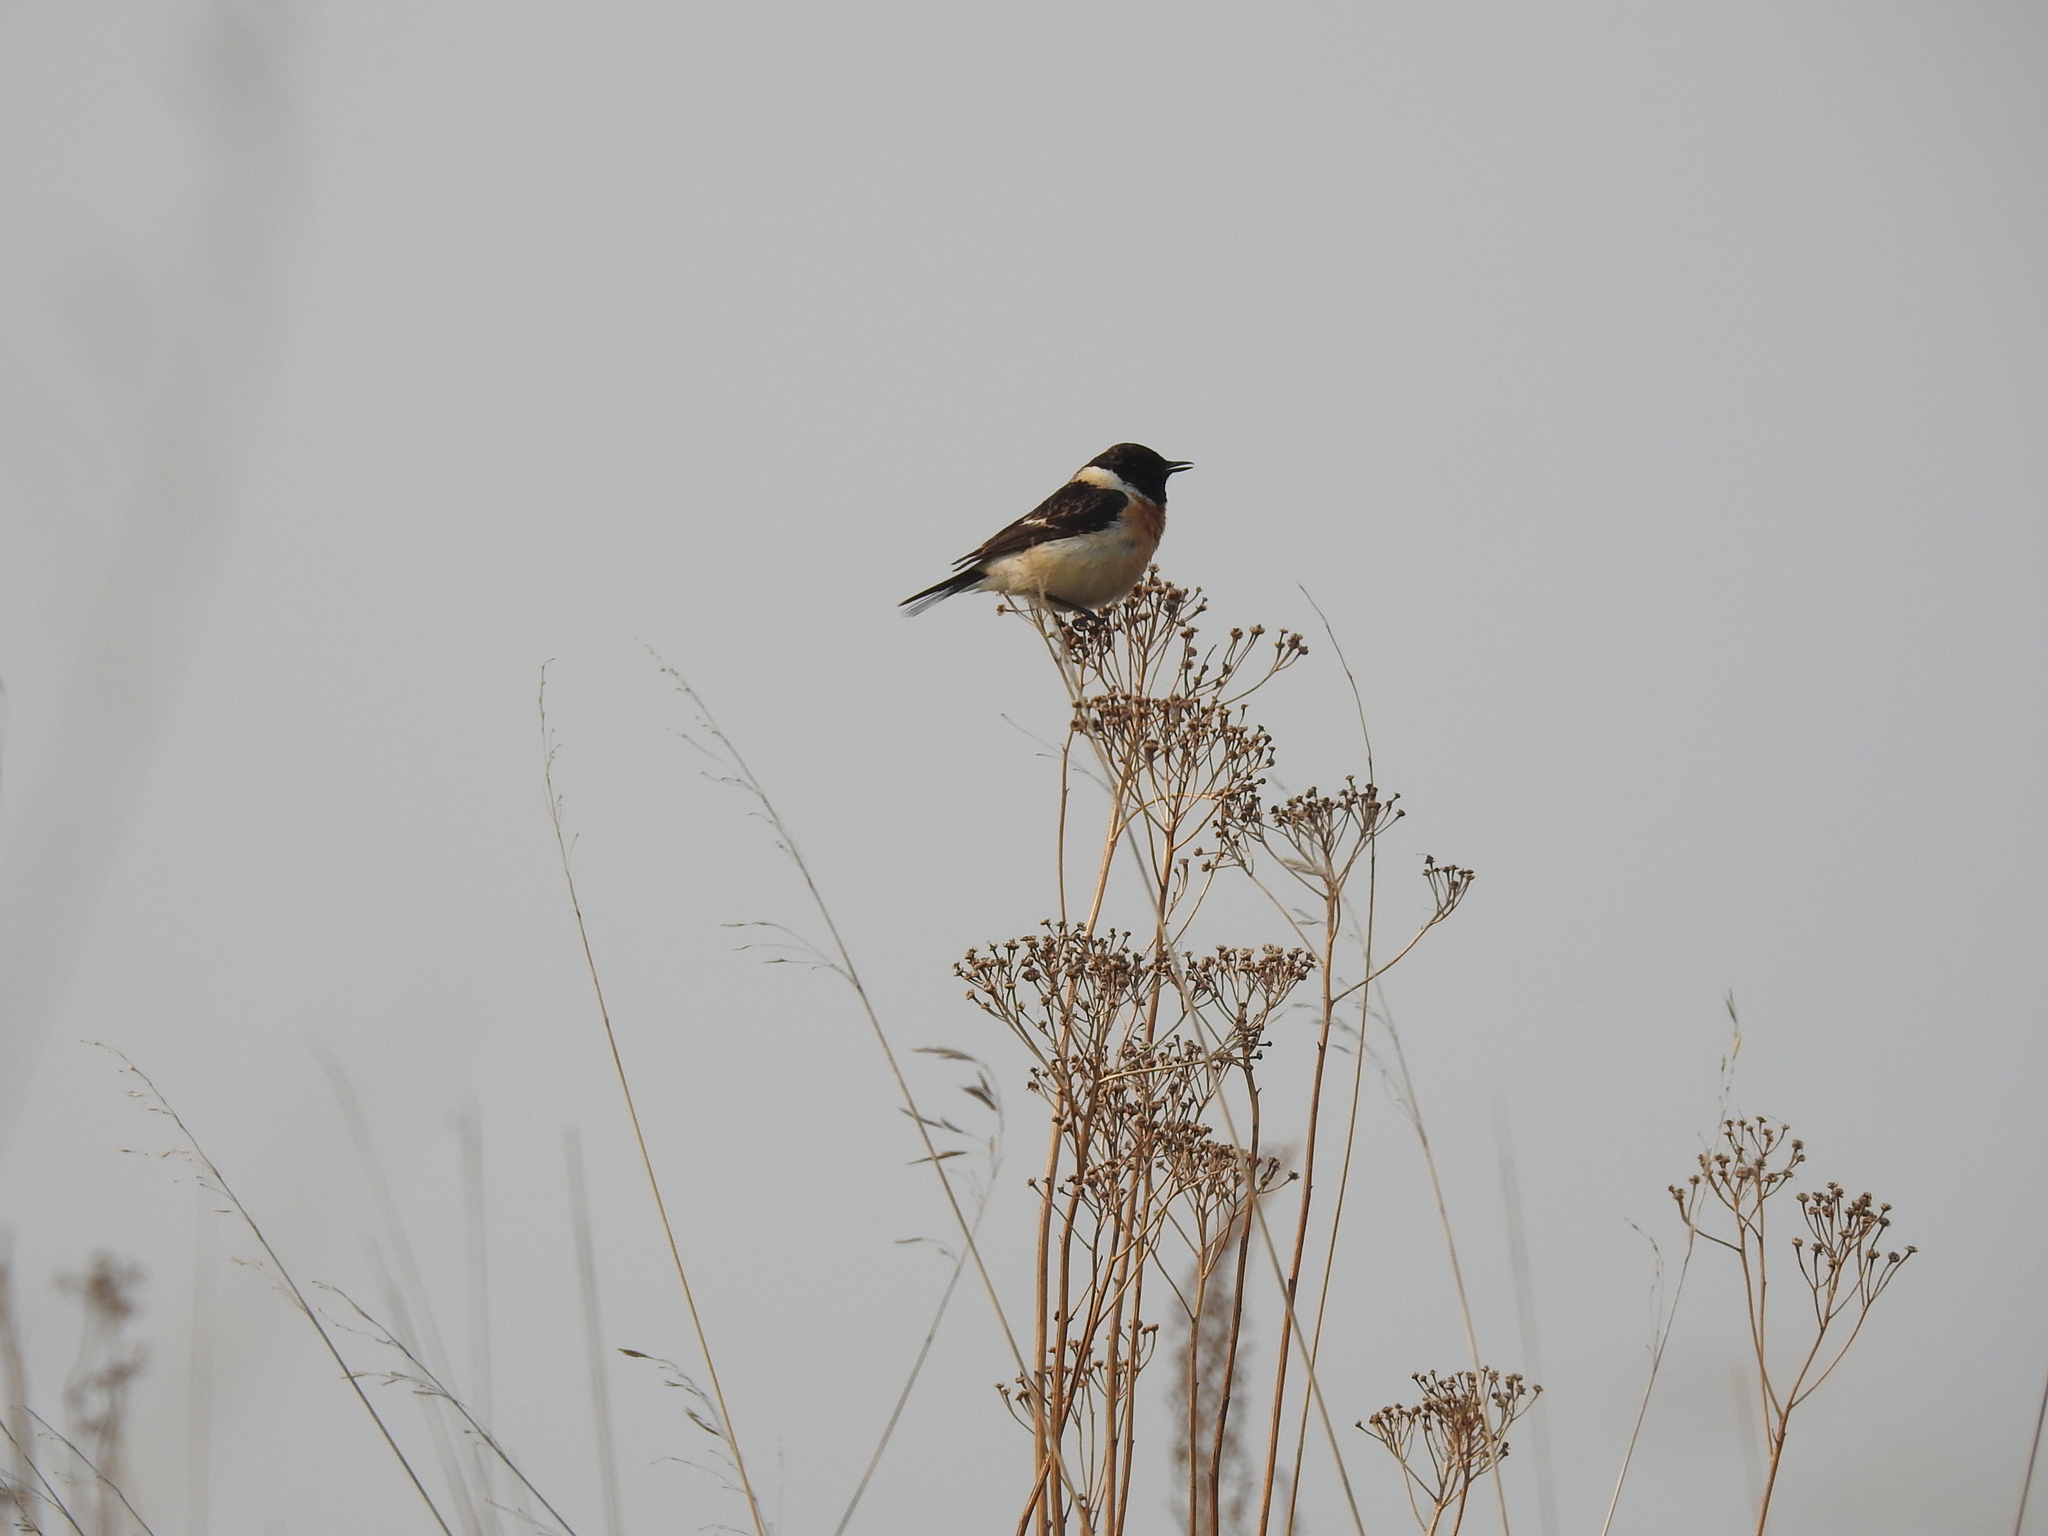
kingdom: Animalia
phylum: Chordata
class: Aves
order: Passeriformes
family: Muscicapidae
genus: Saxicola
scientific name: Saxicola maurus
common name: Siberian stonechat
